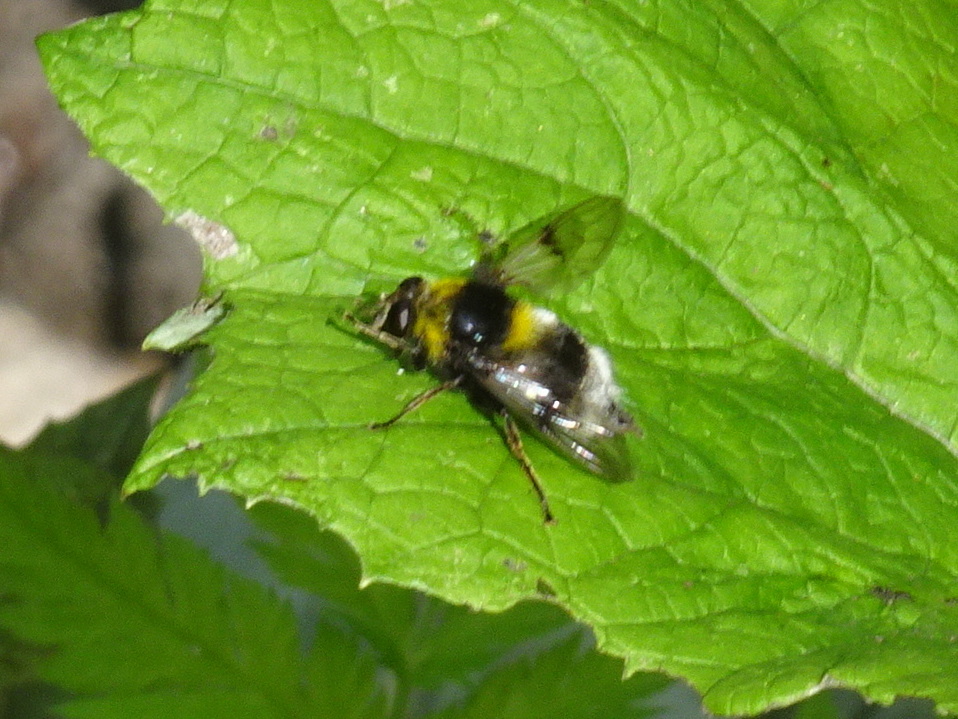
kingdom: Animalia
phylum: Arthropoda
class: Insecta
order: Diptera
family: Syrphidae
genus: Sericomyia
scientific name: Sericomyia bombiformis
